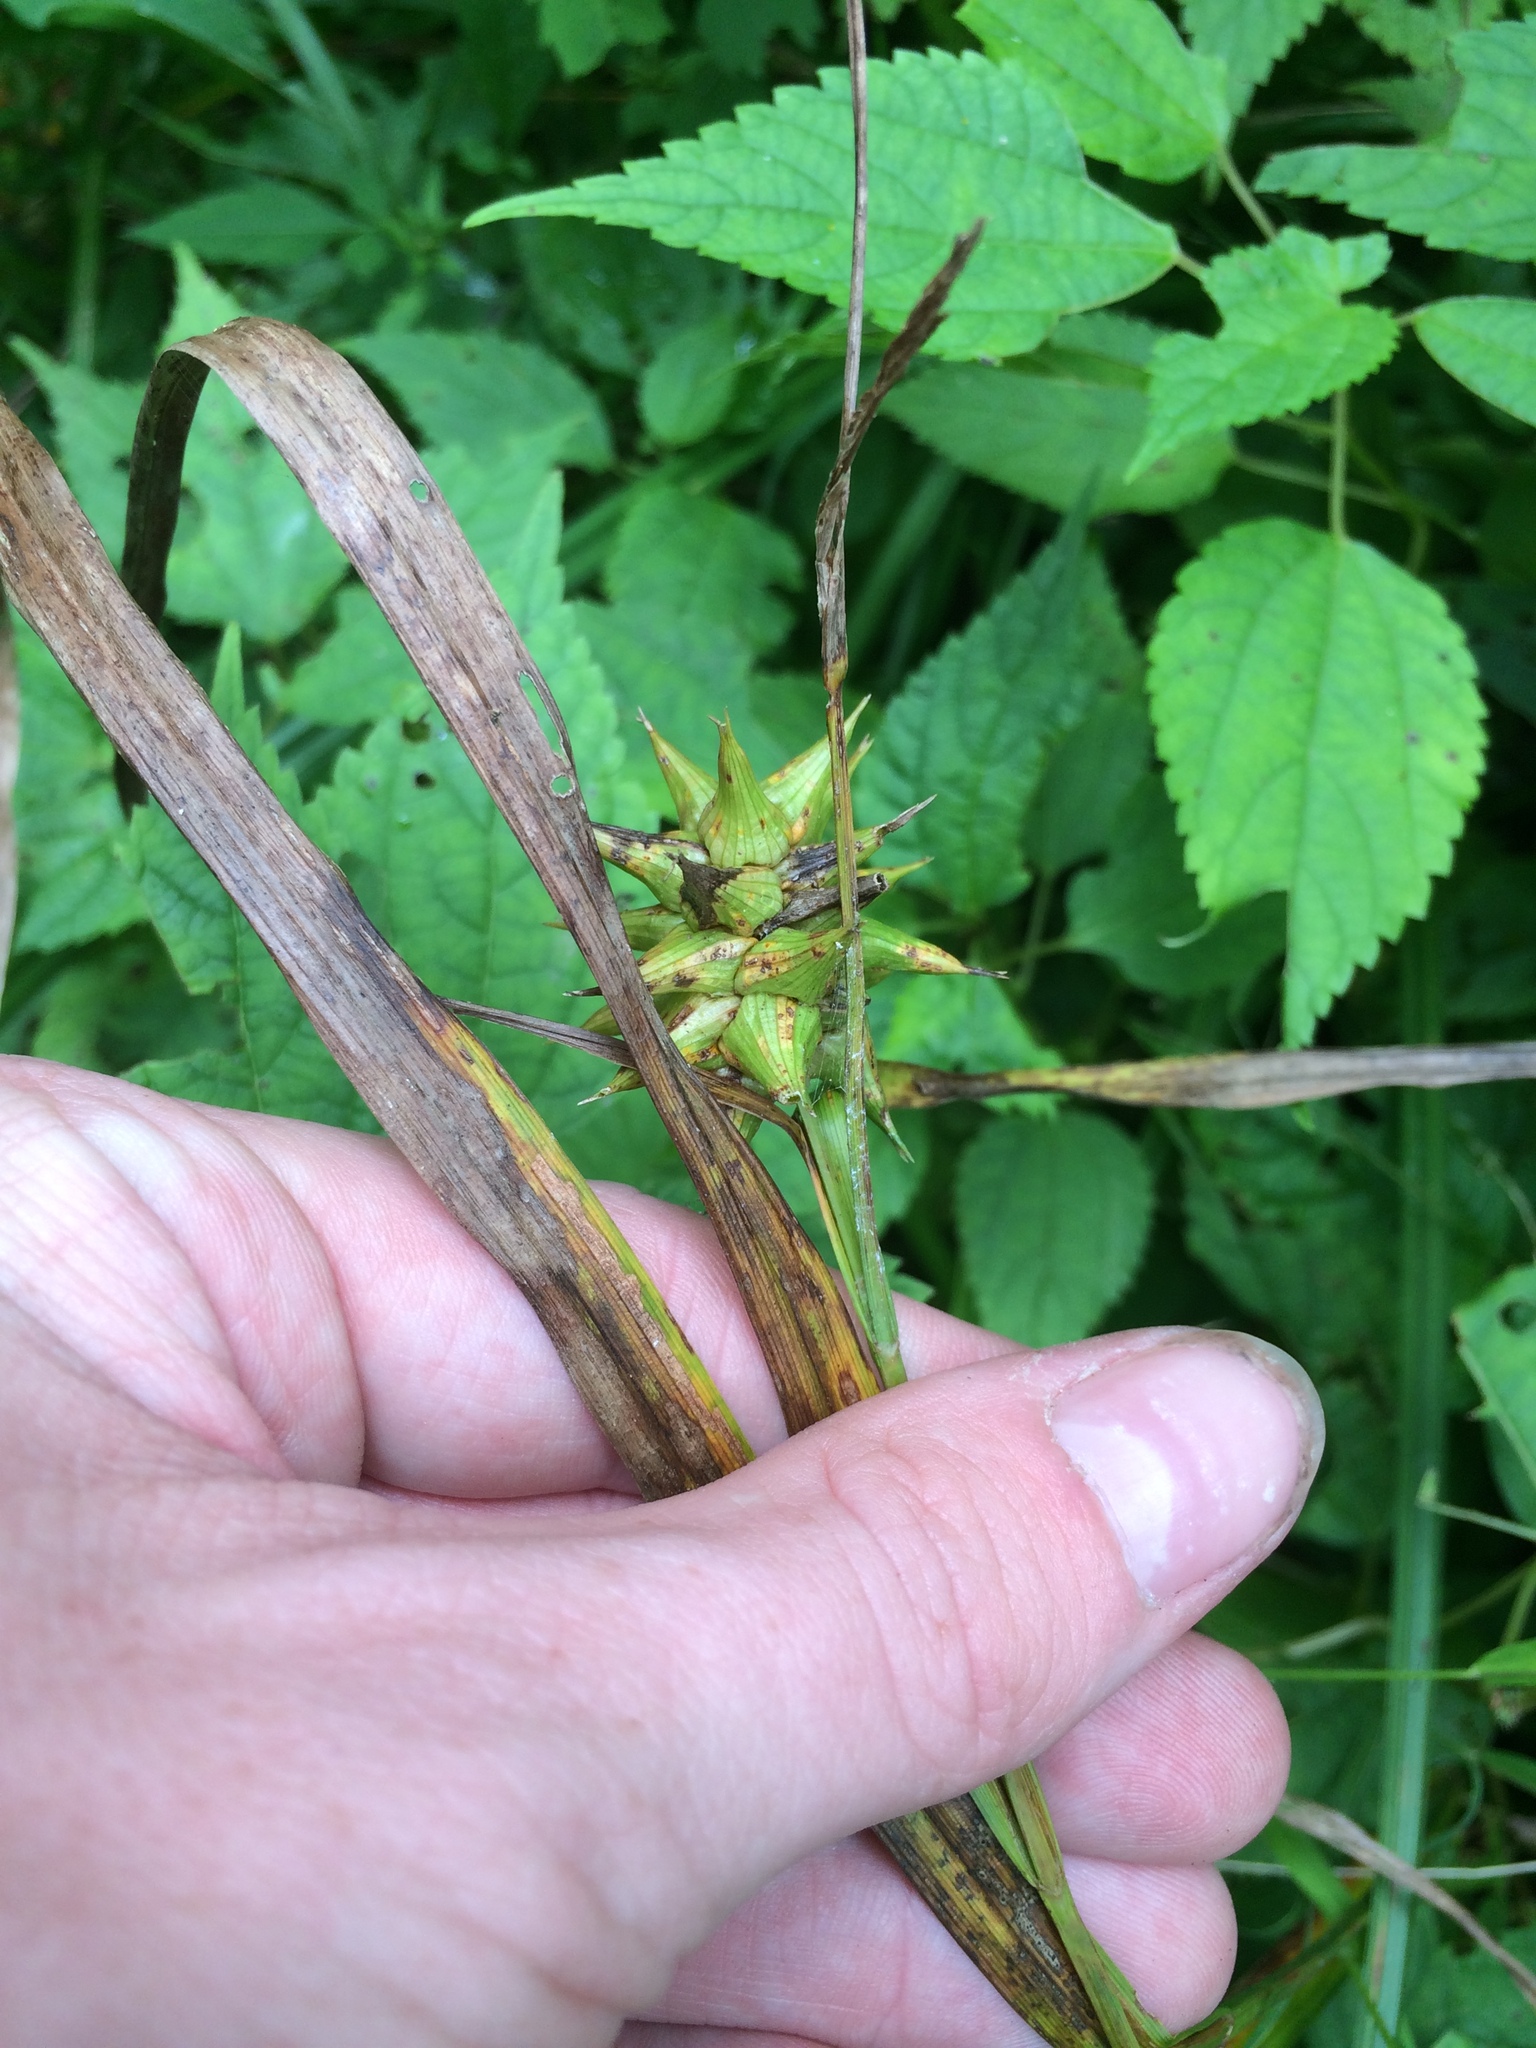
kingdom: Plantae
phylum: Tracheophyta
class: Liliopsida
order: Poales
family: Cyperaceae
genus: Carex
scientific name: Carex grayi
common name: Asa gray's sedge
